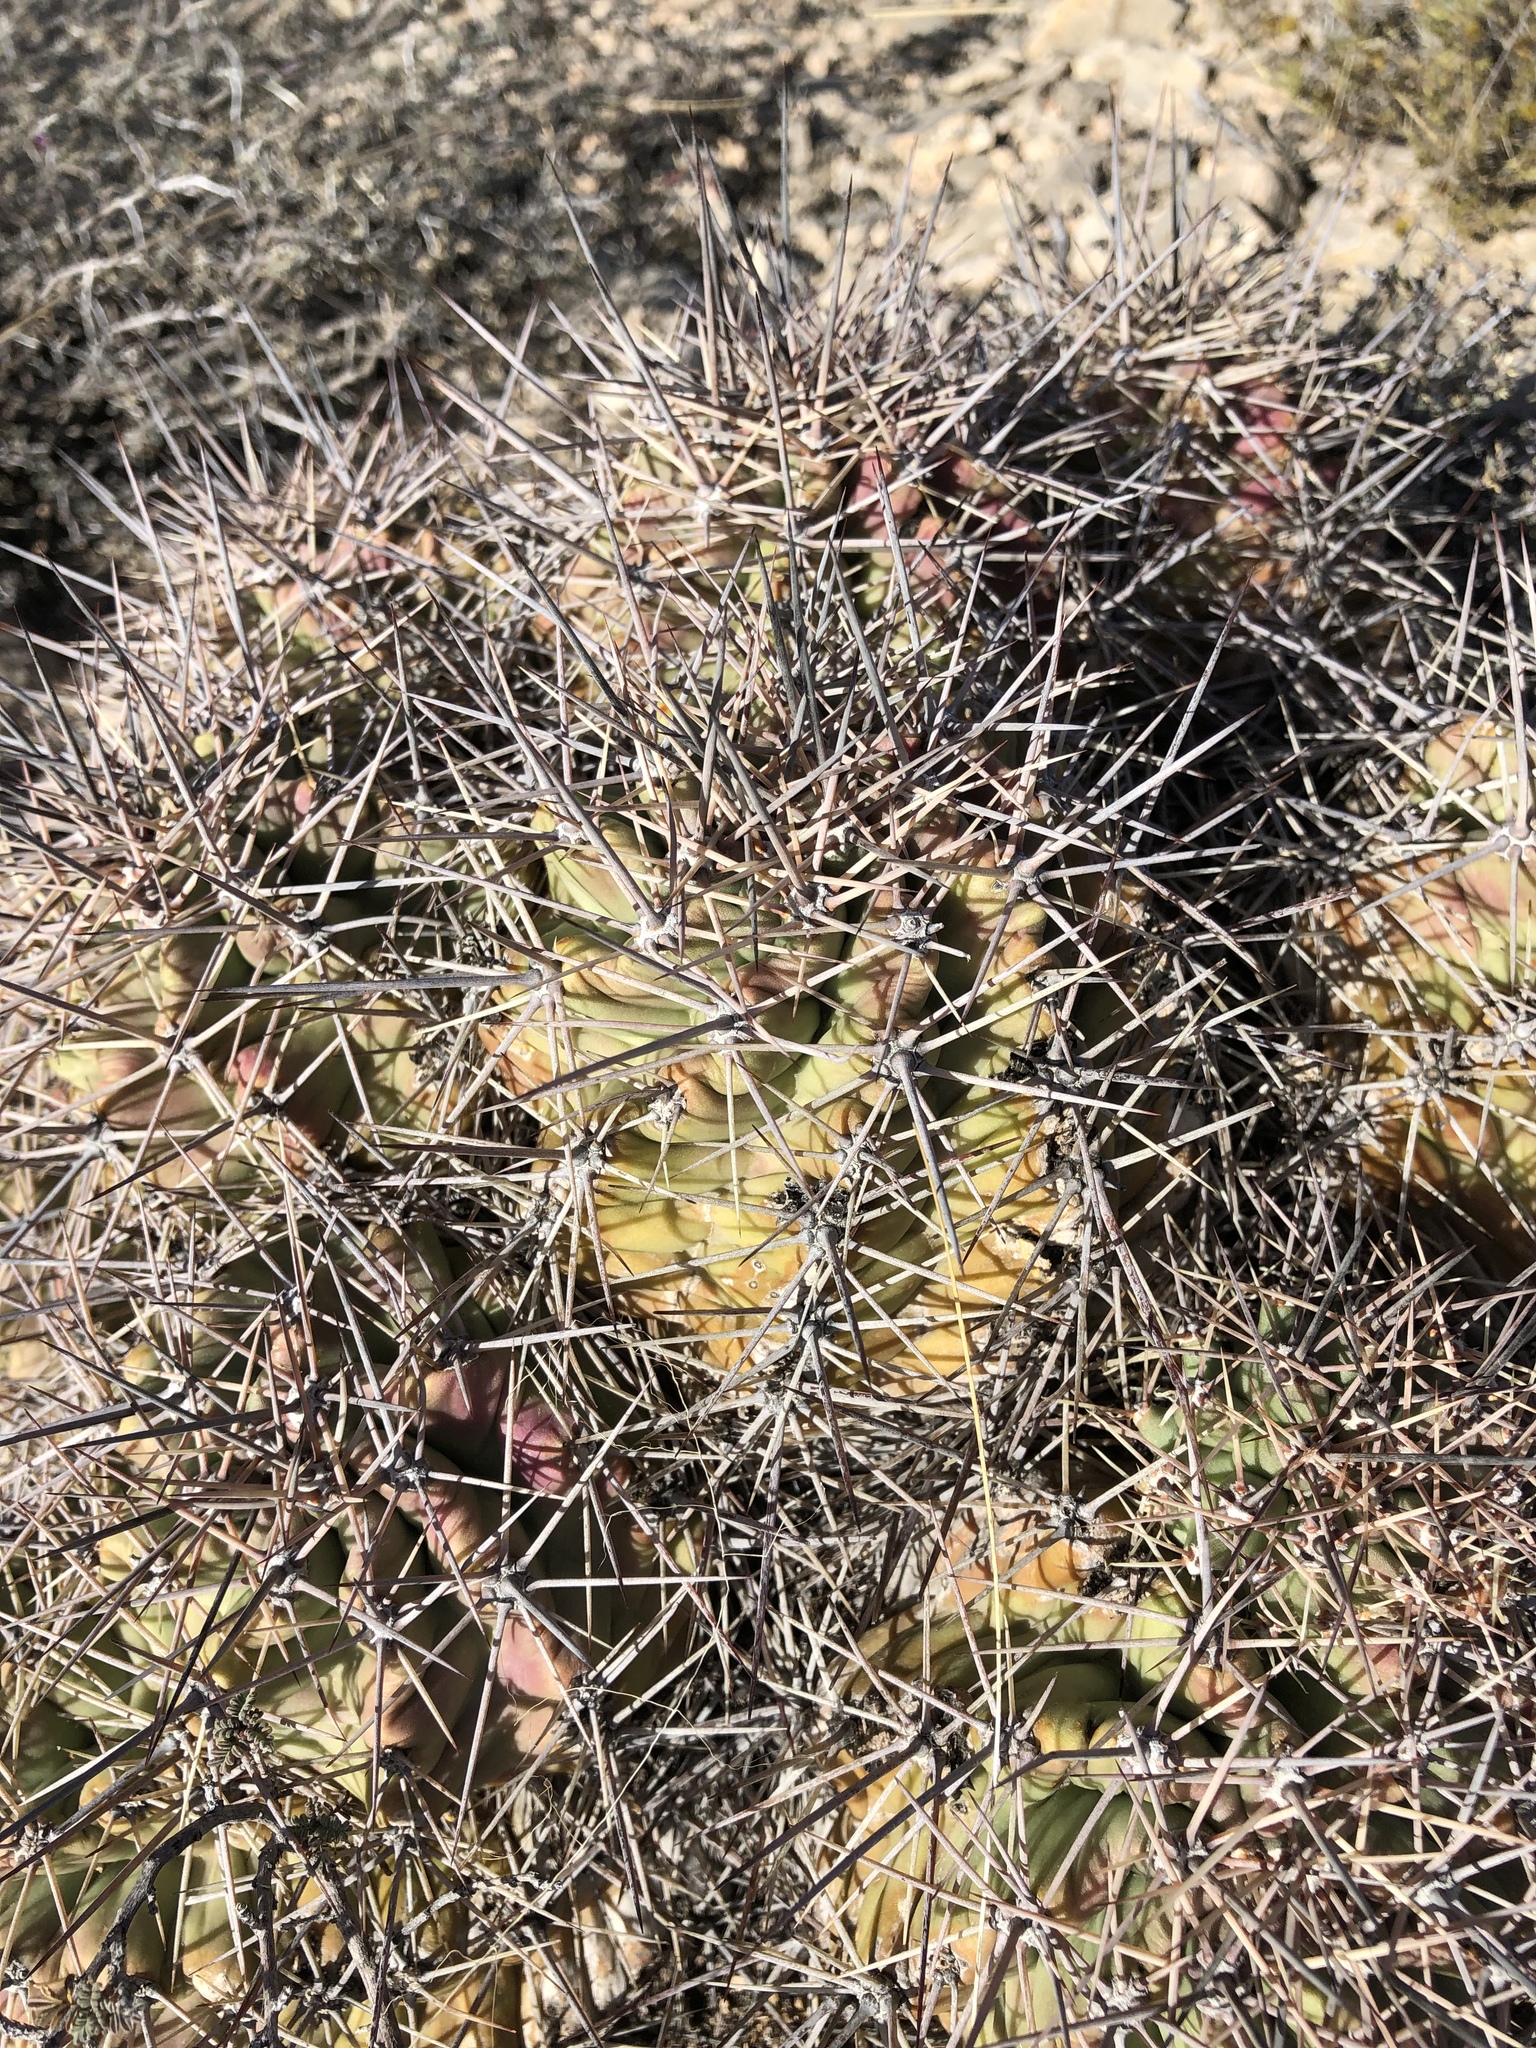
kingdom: Plantae
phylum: Tracheophyta
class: Magnoliopsida
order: Caryophyllales
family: Cactaceae
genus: Echinocereus
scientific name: Echinocereus coccineus
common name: Scarlet hedgehog cactus
